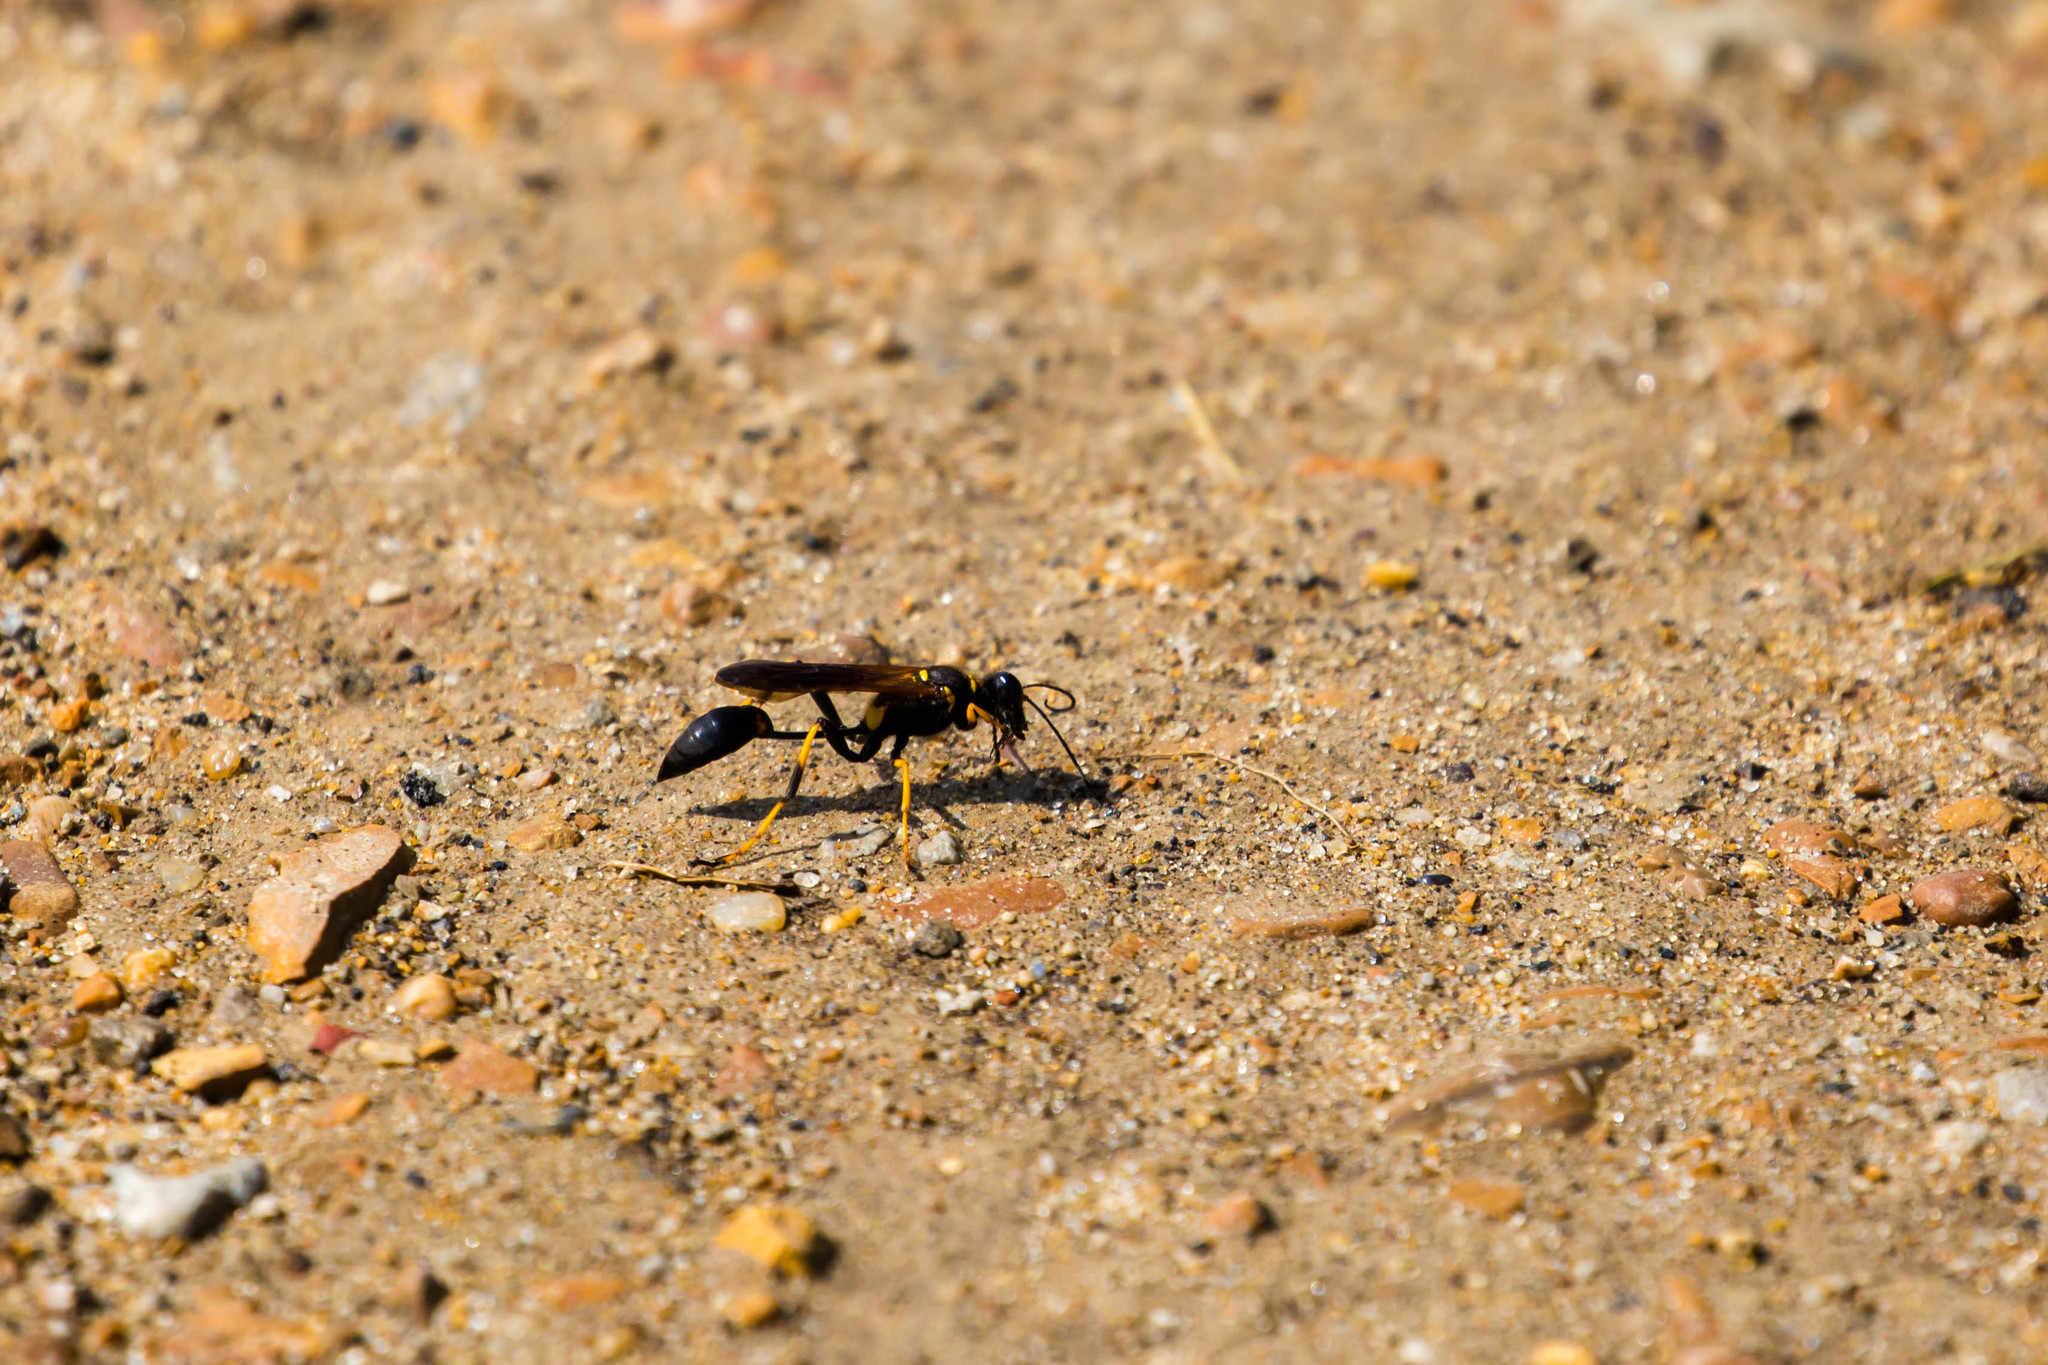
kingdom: Animalia
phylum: Arthropoda
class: Insecta
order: Hymenoptera
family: Sphecidae
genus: Sceliphron
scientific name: Sceliphron caementarium
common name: Mud dauber
